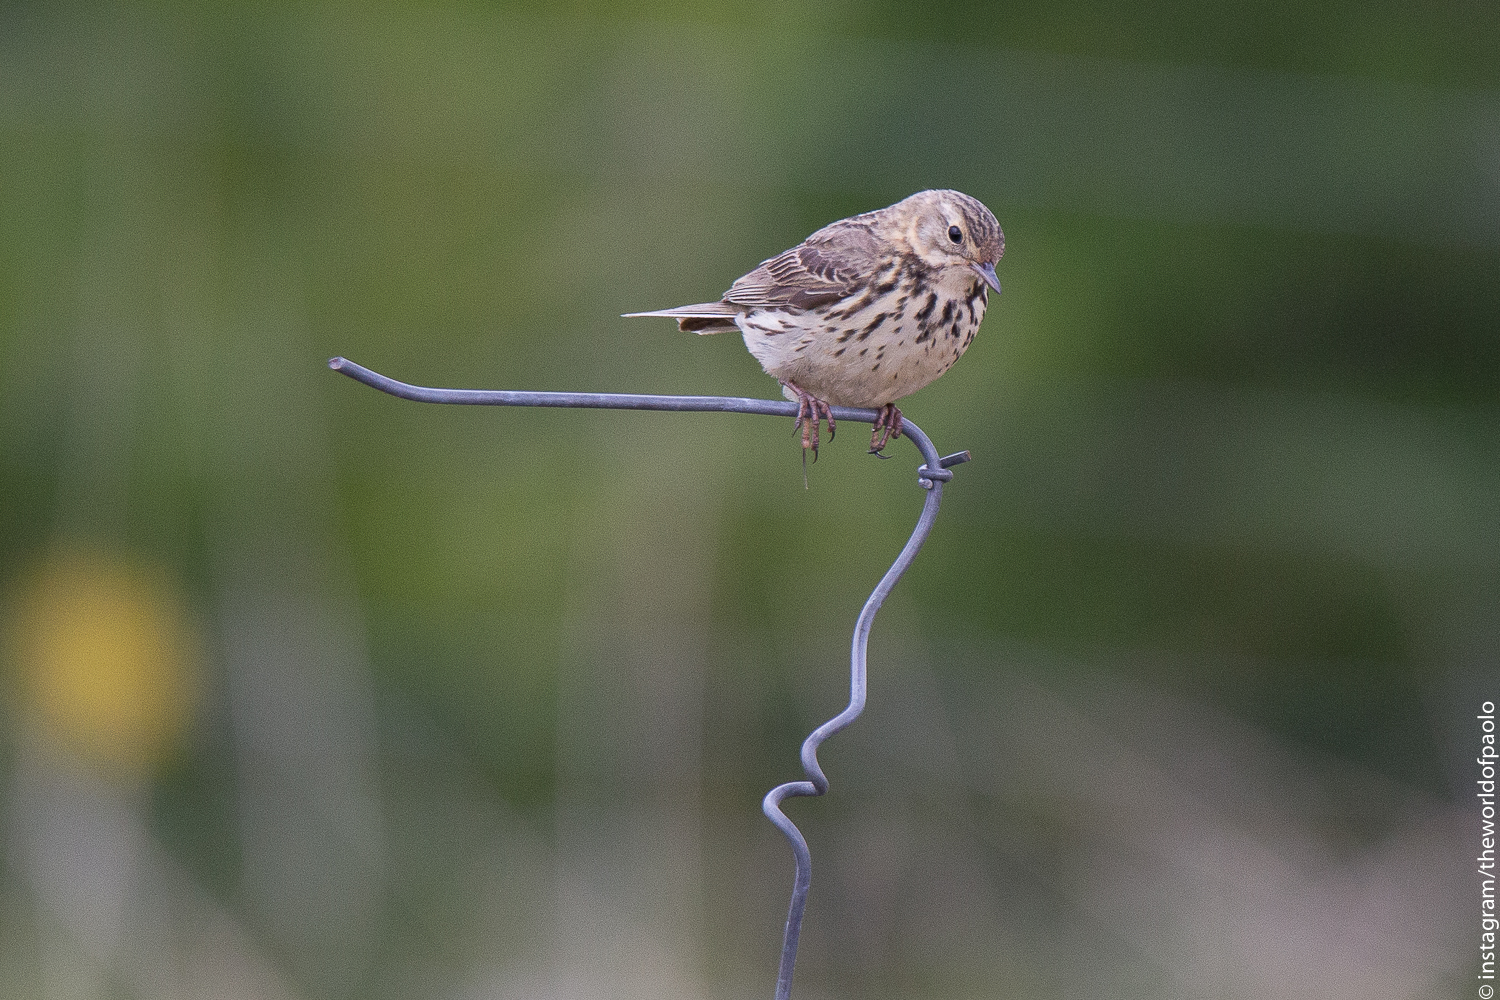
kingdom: Animalia
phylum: Chordata
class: Aves
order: Passeriformes
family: Motacillidae
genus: Anthus
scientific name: Anthus pratensis
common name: Meadow pipit
